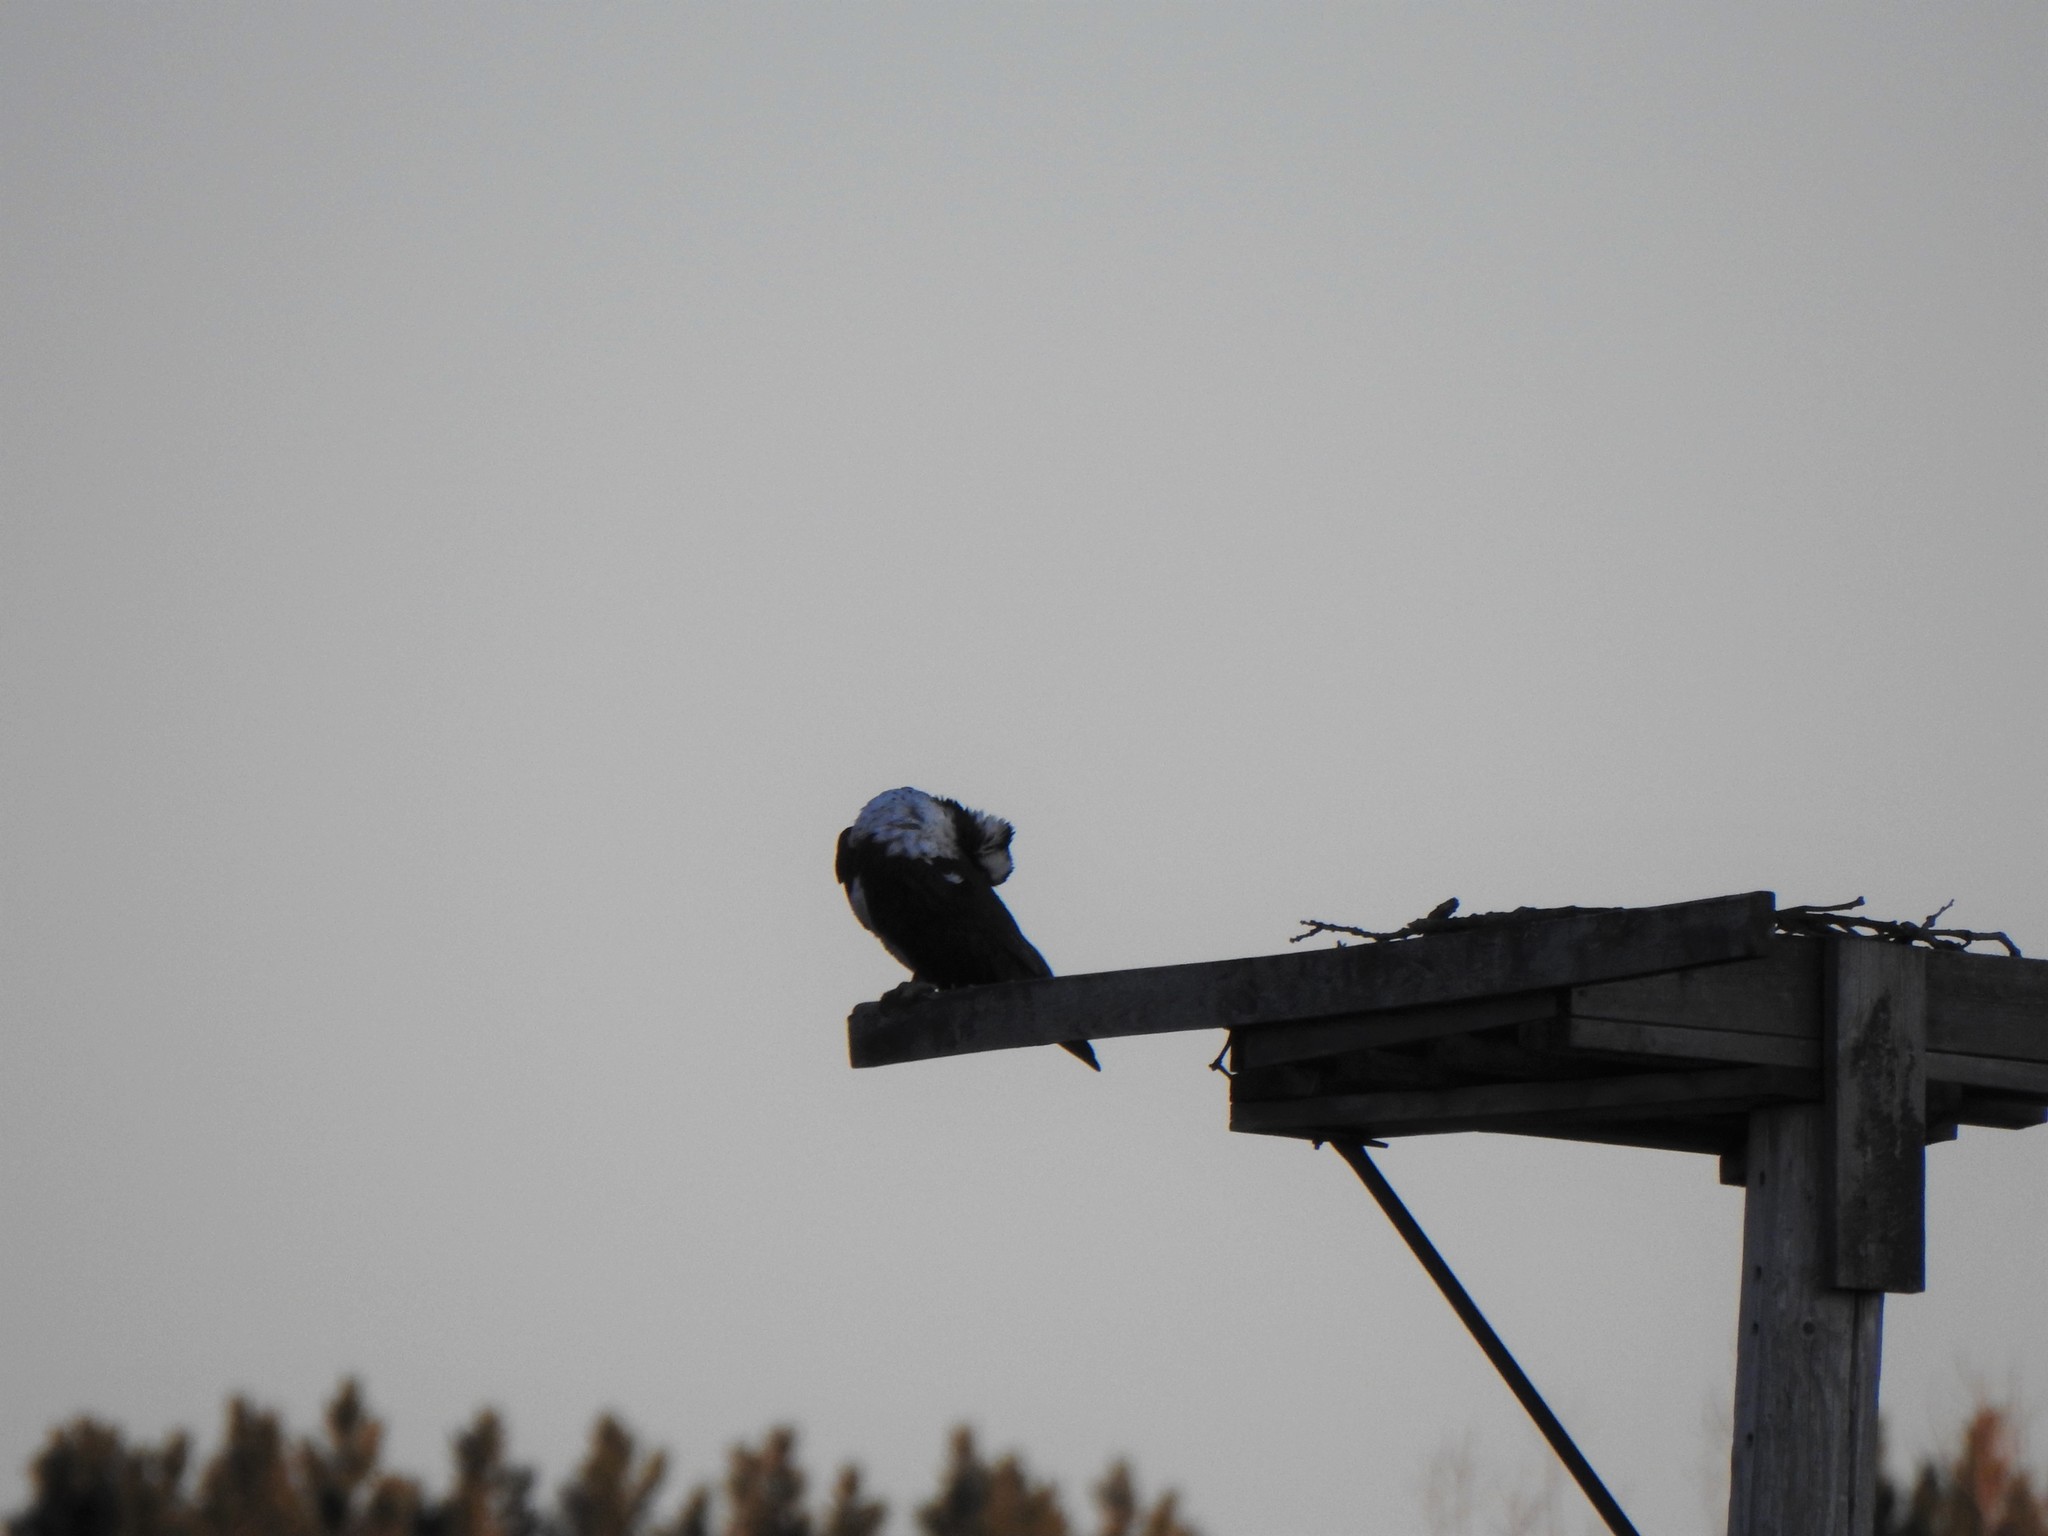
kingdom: Animalia
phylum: Chordata
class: Aves
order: Accipitriformes
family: Pandionidae
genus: Pandion
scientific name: Pandion haliaetus
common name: Osprey
